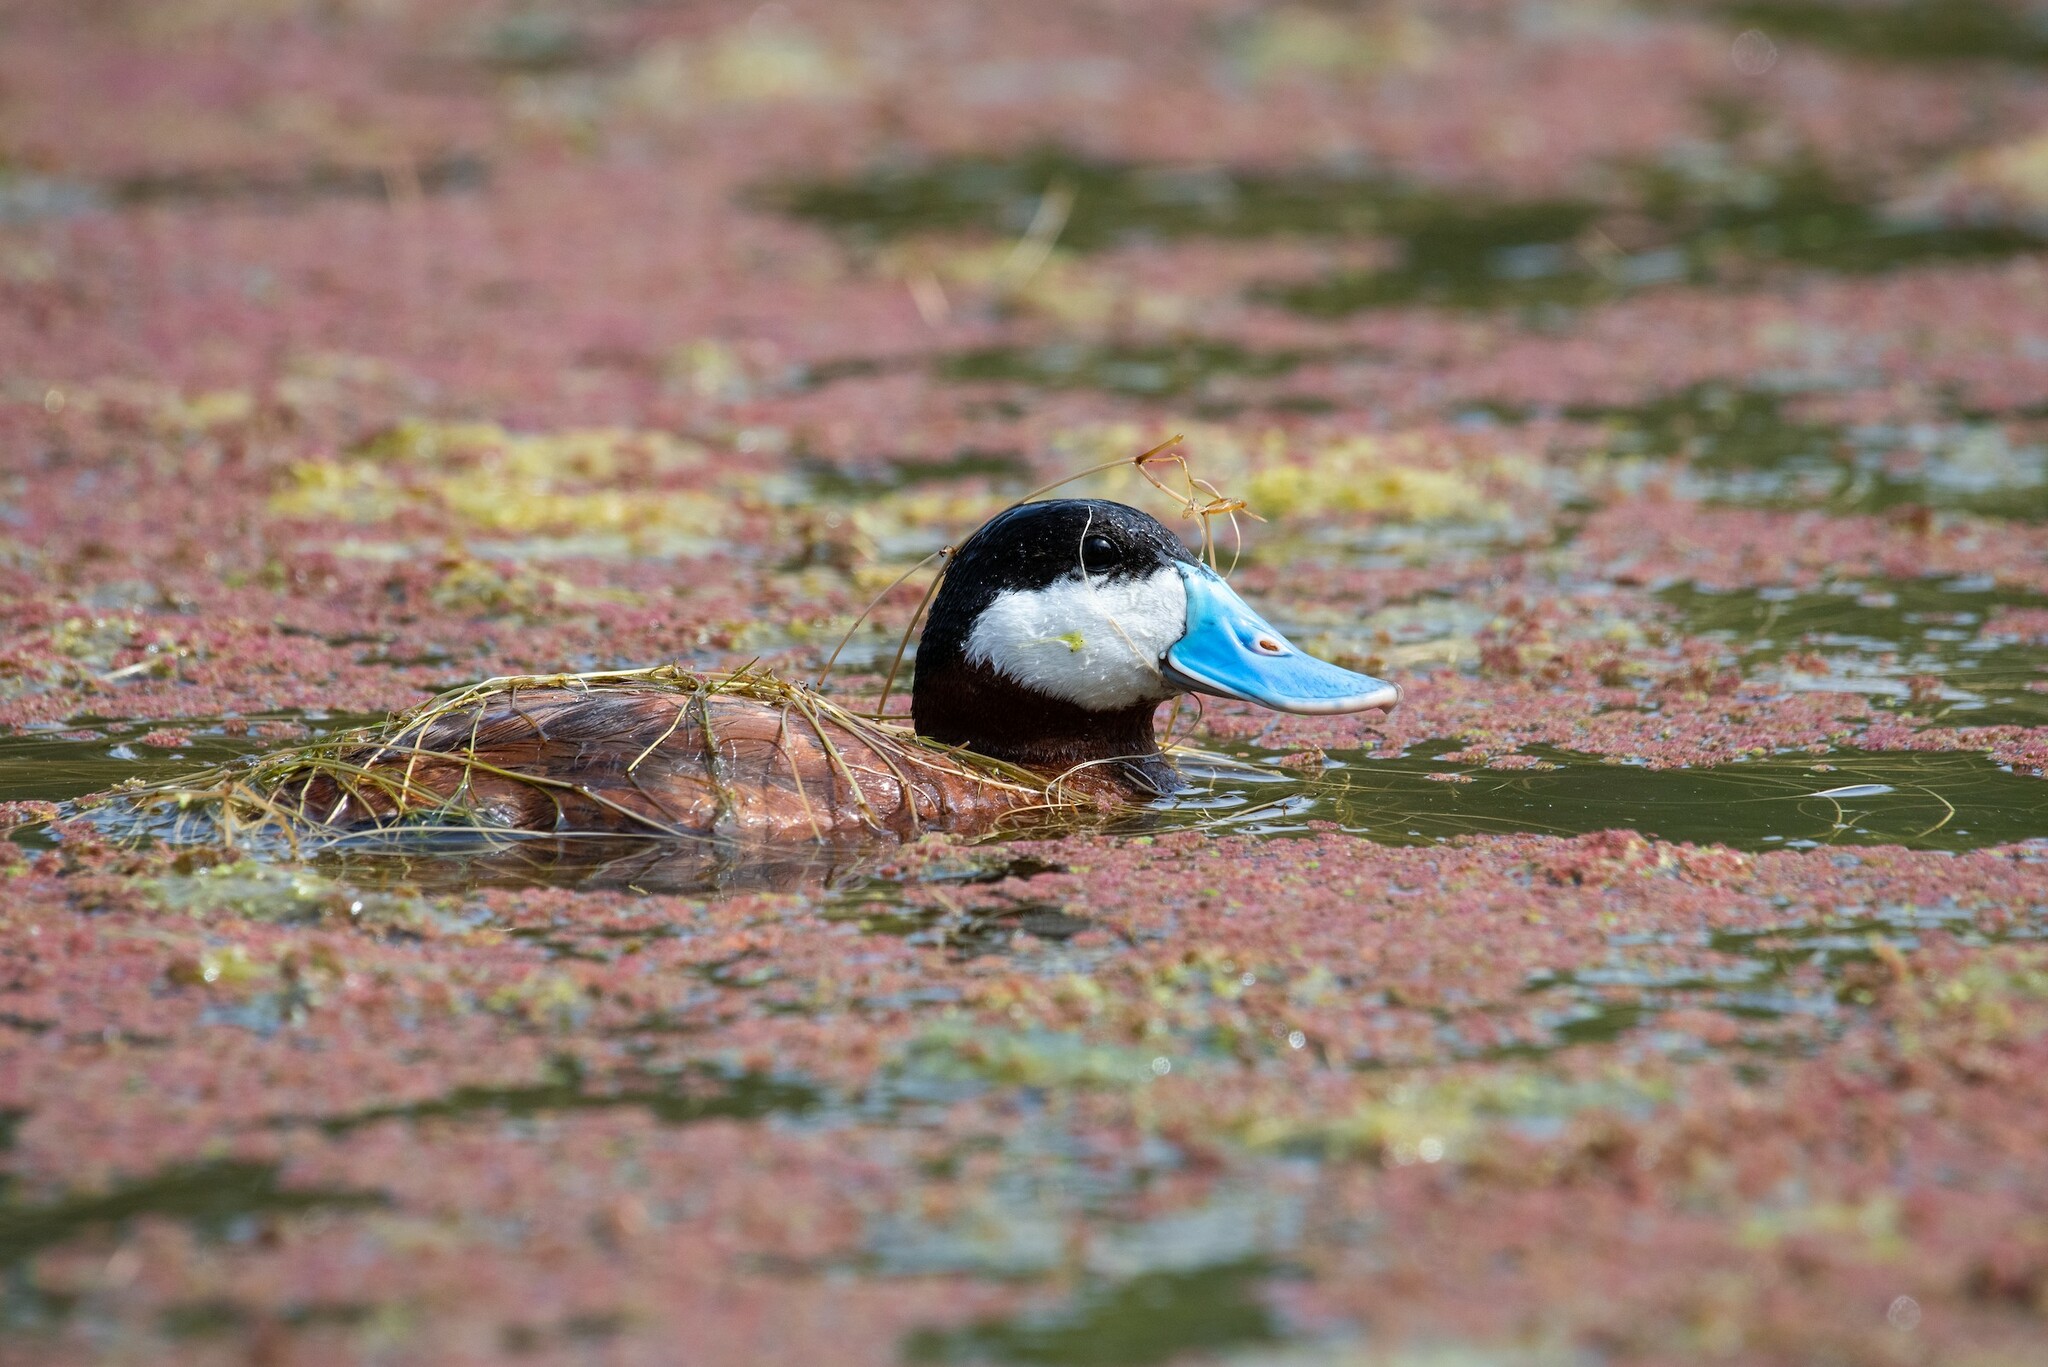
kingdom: Animalia
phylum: Chordata
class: Aves
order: Anseriformes
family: Anatidae
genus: Oxyura
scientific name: Oxyura jamaicensis
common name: Ruddy duck
